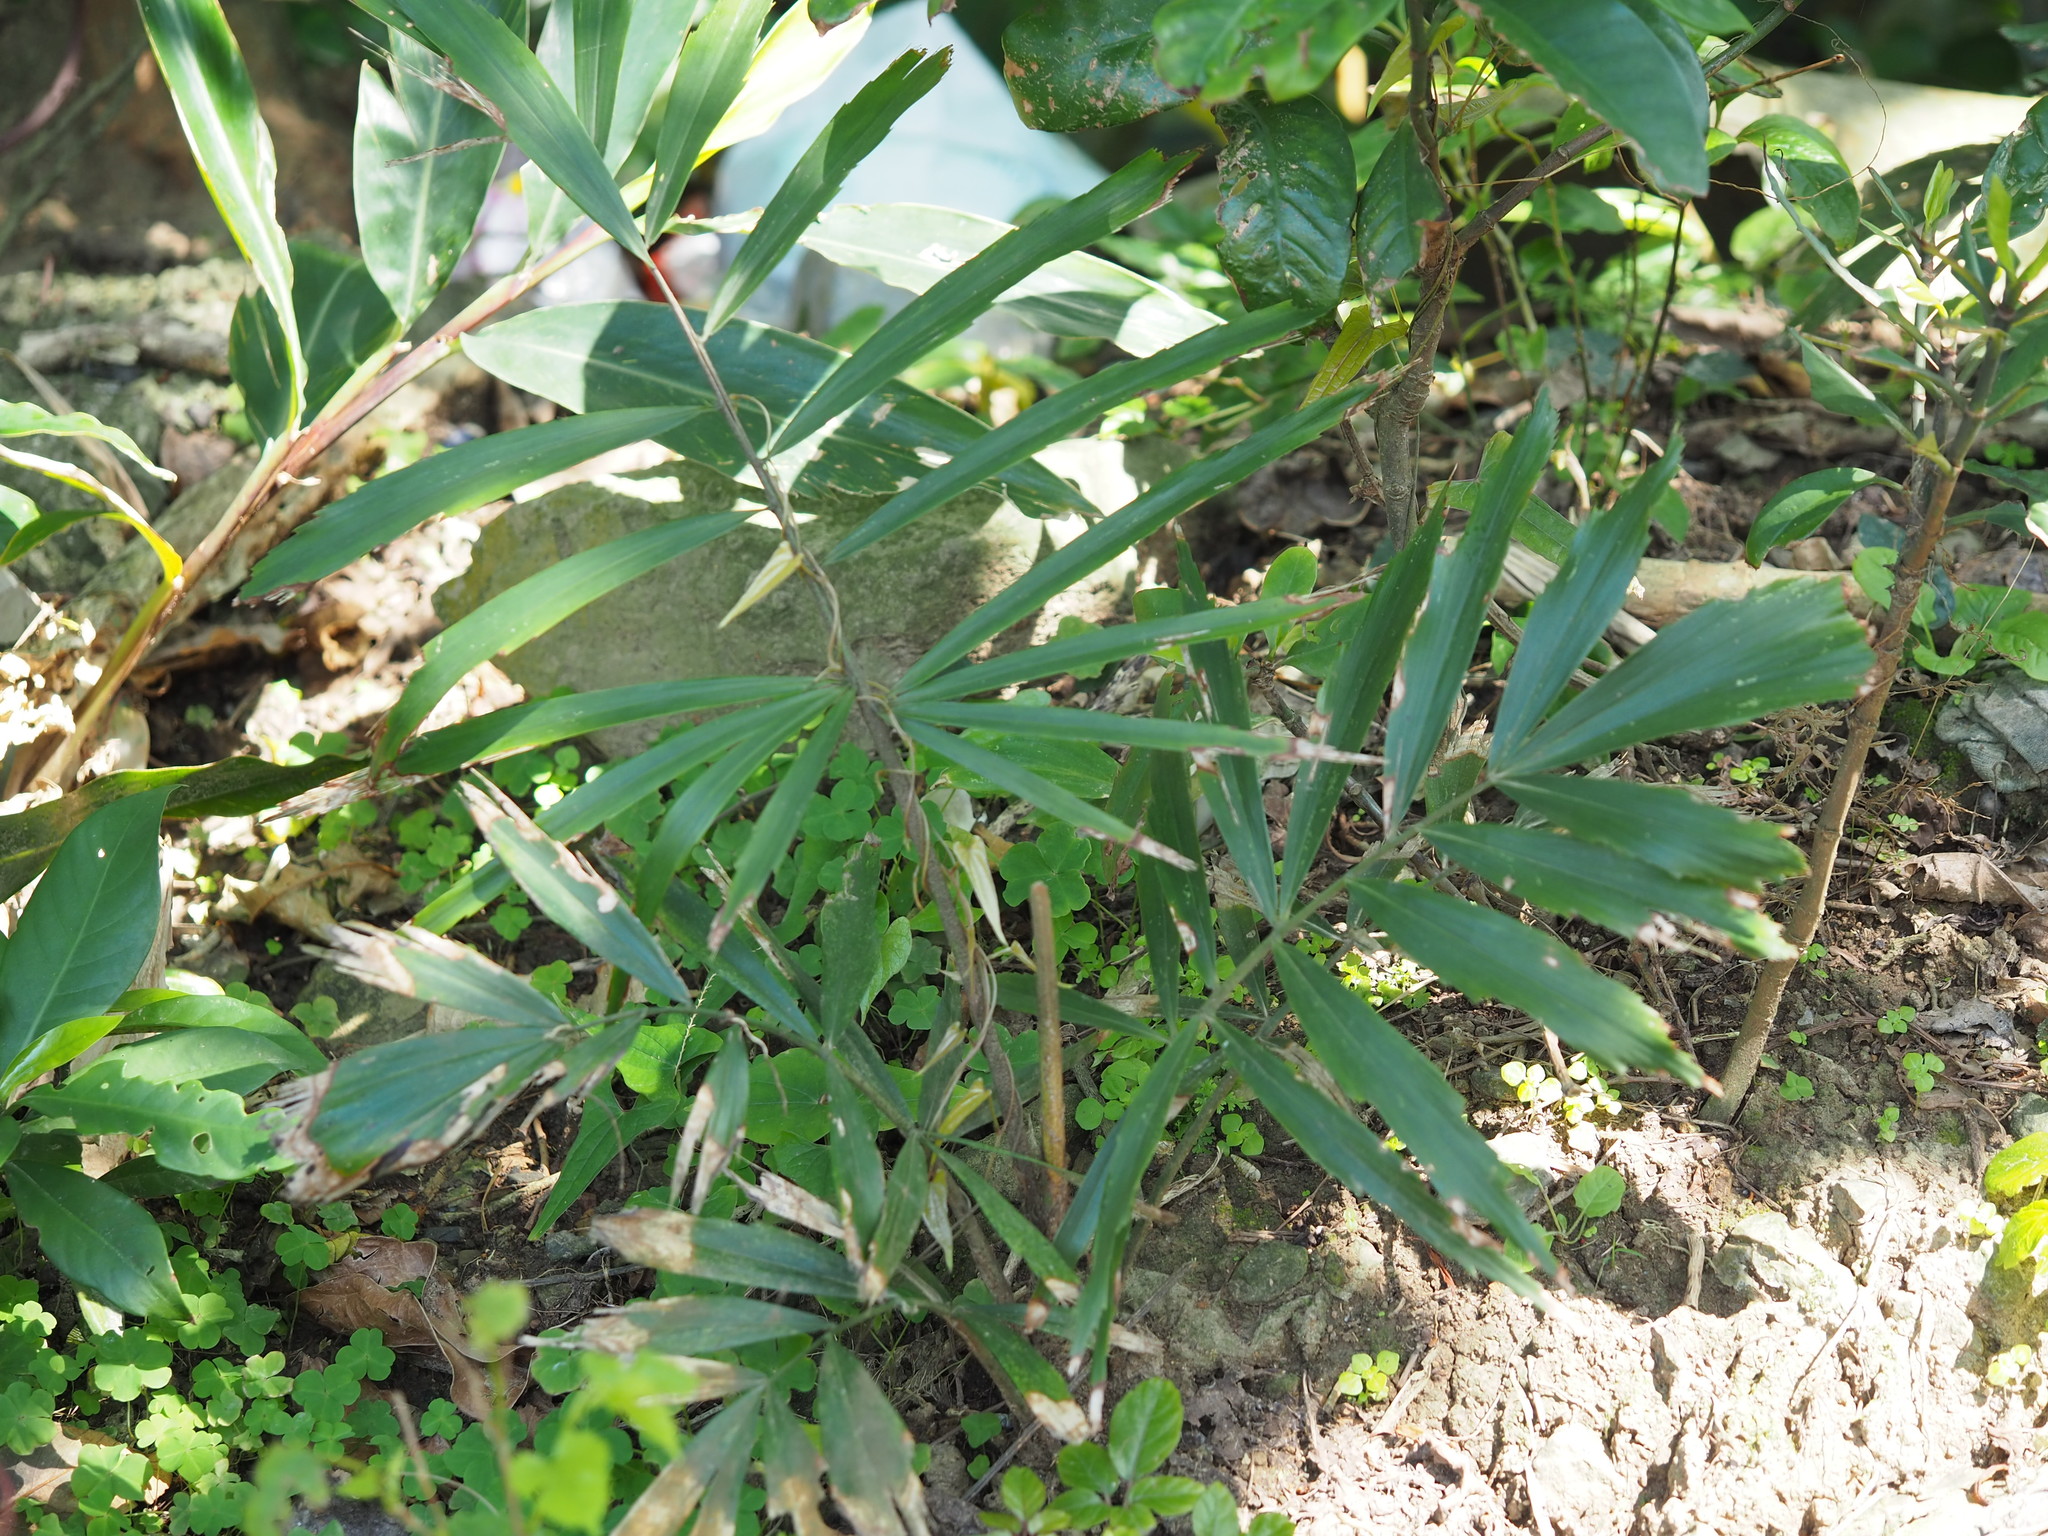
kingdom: Plantae
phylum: Tracheophyta
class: Liliopsida
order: Arecales
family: Arecaceae
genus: Arenga
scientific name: Arenga engleri
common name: Formosan sugar palm
